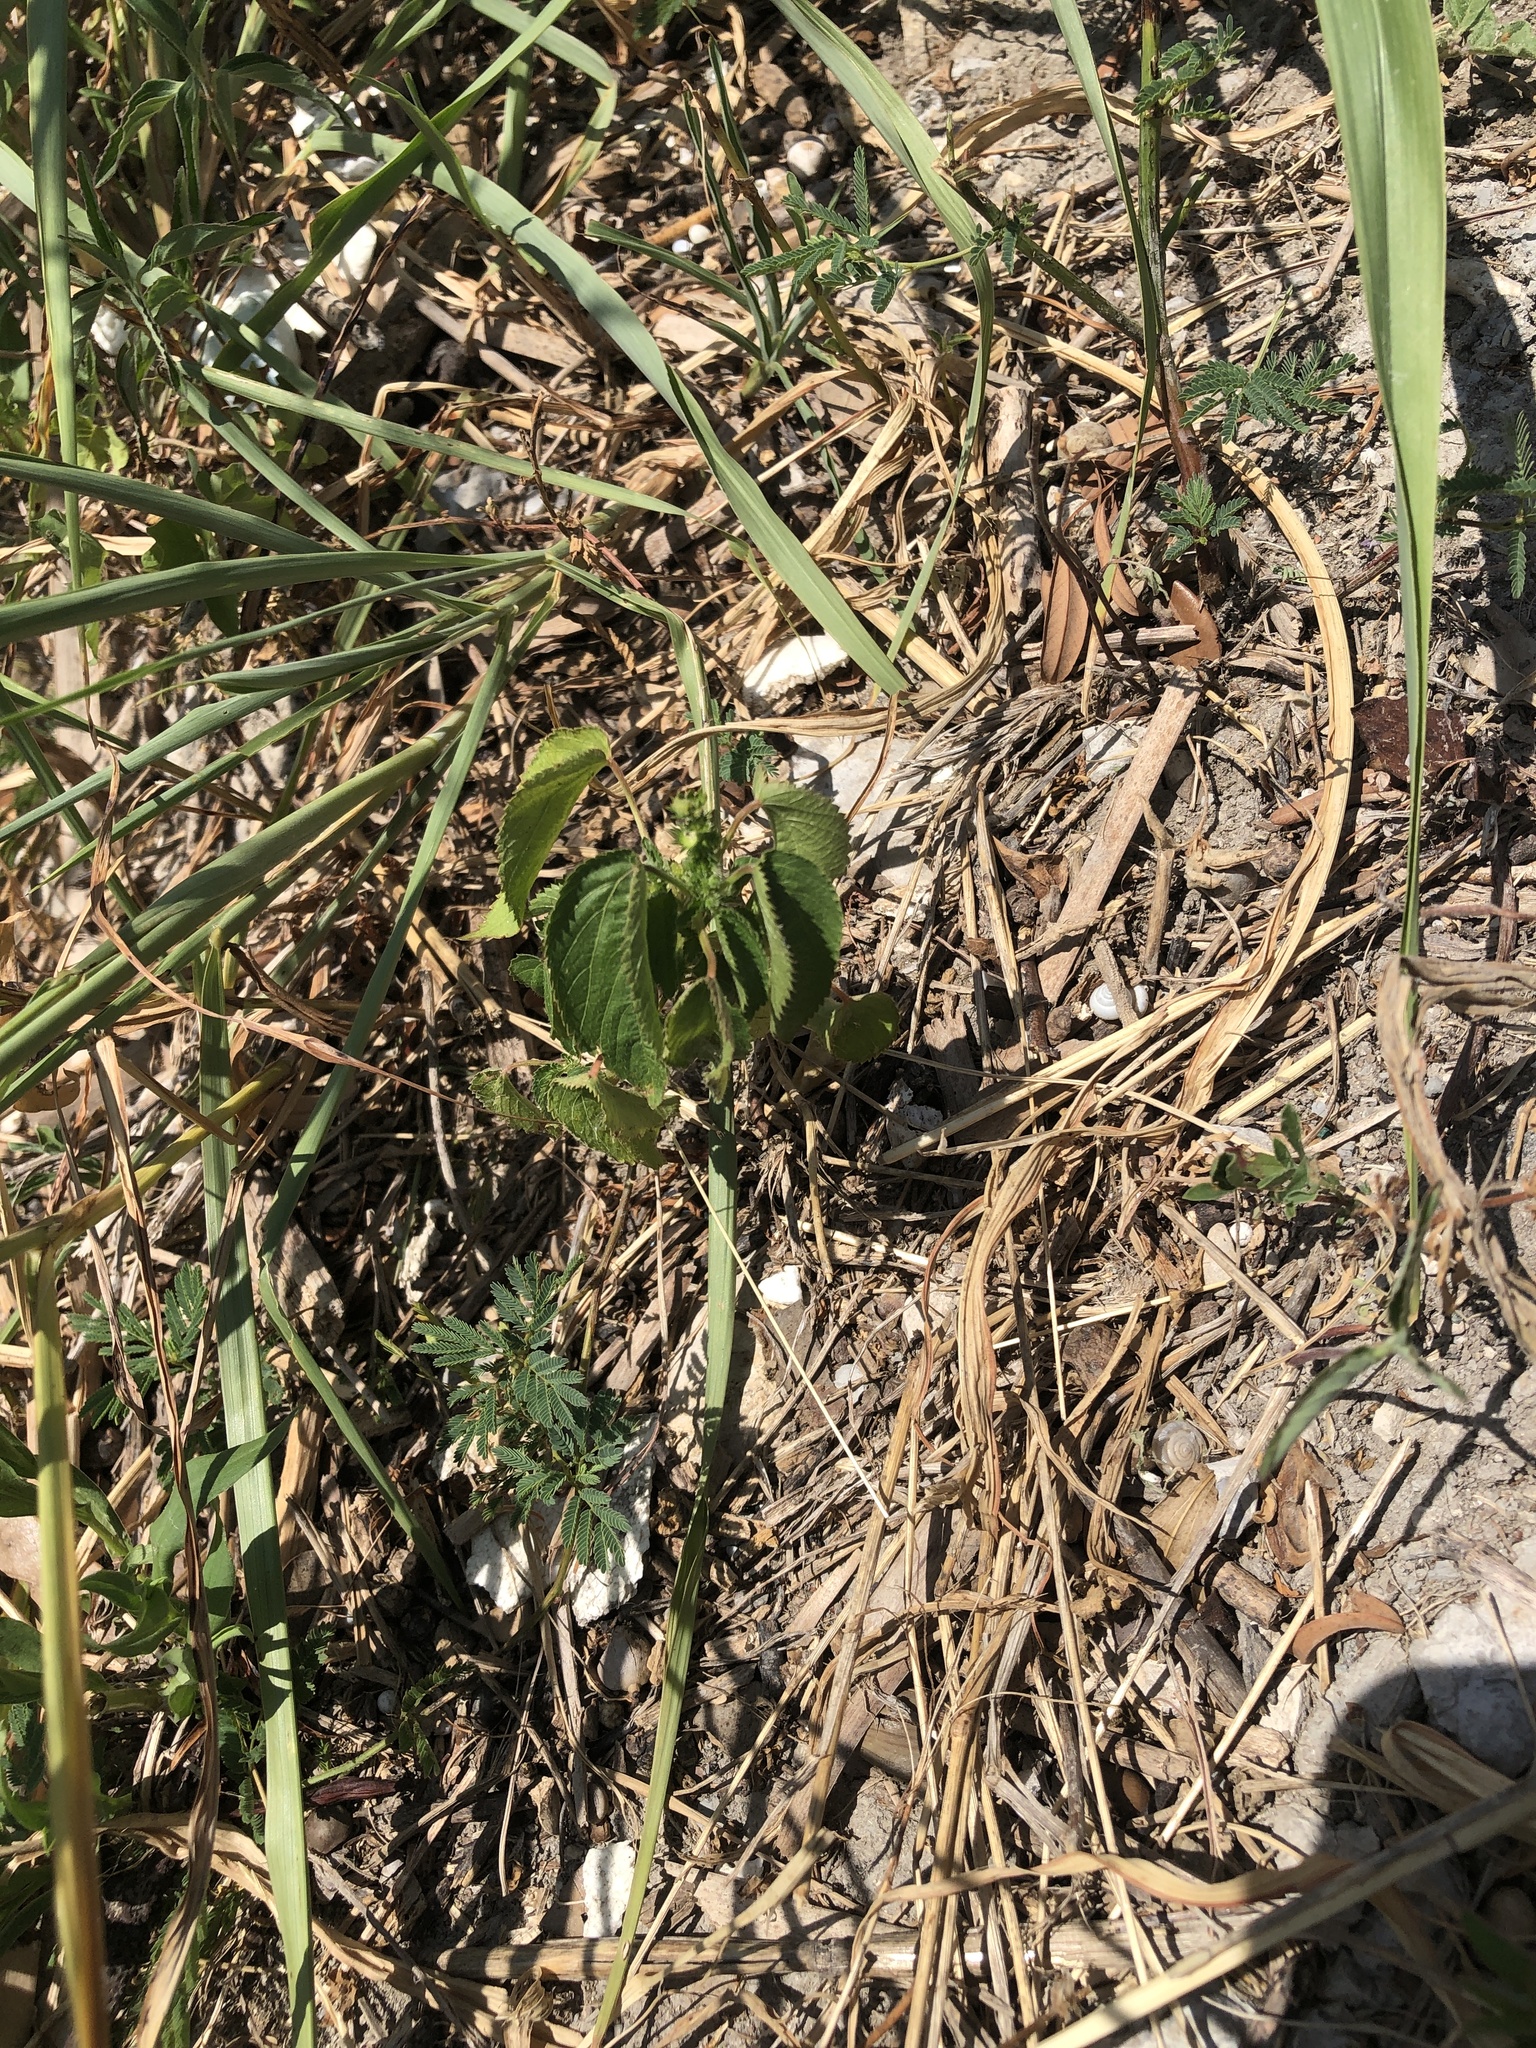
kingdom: Plantae
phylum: Tracheophyta
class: Magnoliopsida
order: Malpighiales
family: Euphorbiaceae
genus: Acalypha
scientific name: Acalypha ostryifolia
